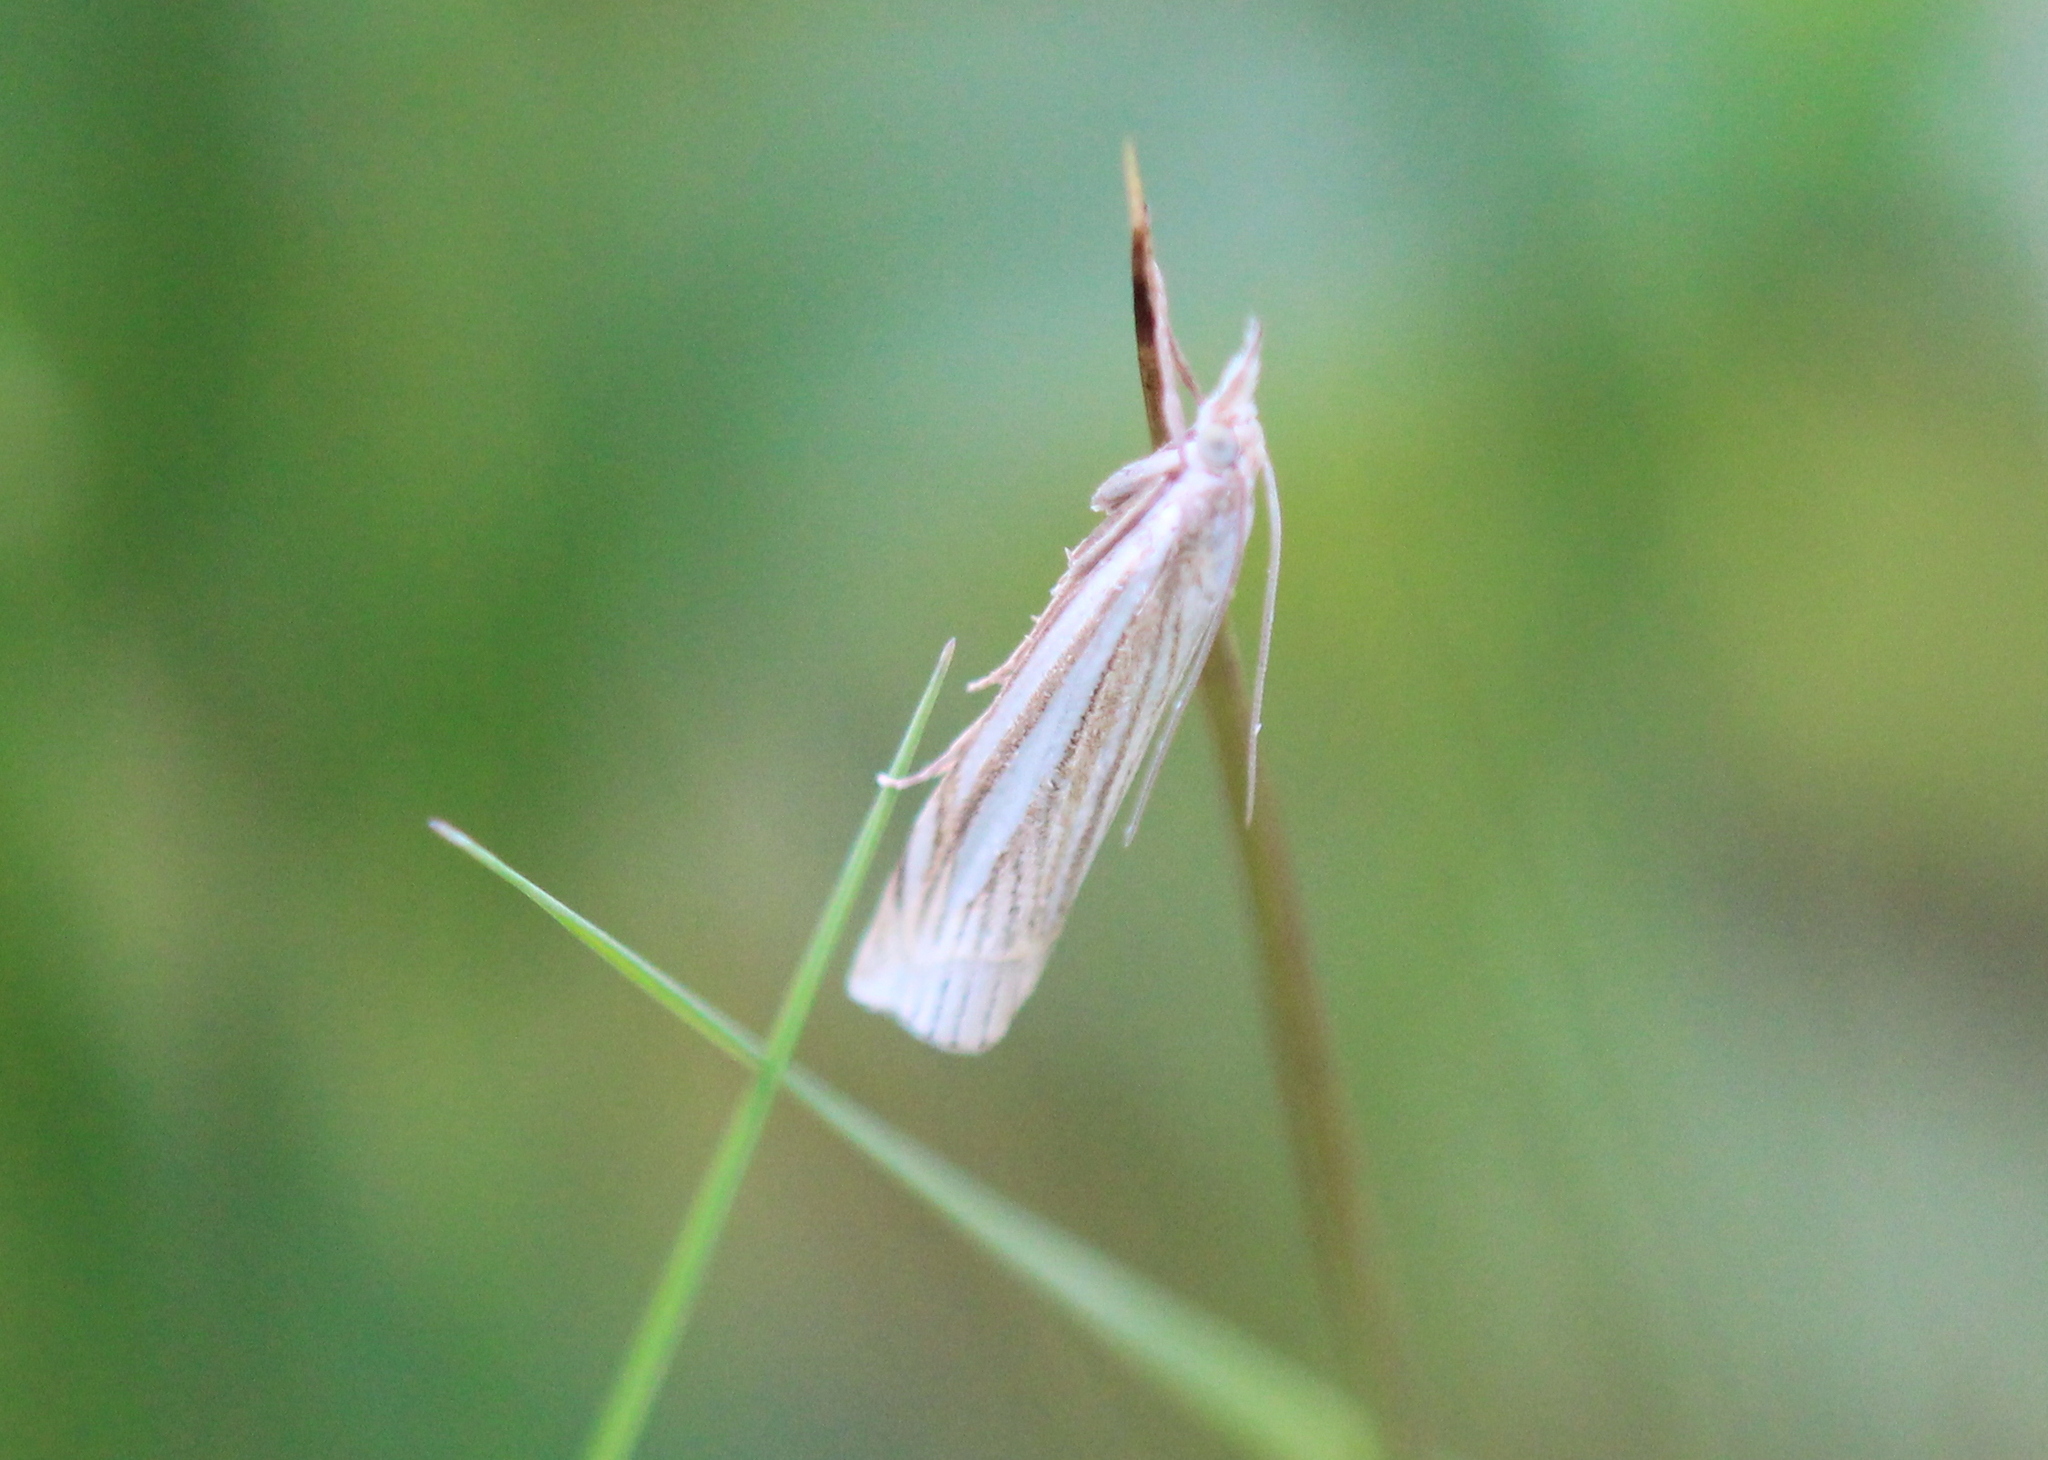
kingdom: Animalia
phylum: Arthropoda
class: Insecta
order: Lepidoptera
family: Crambidae
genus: Crambus
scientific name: Crambus laqueatellus
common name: Eastern grass-veneer
